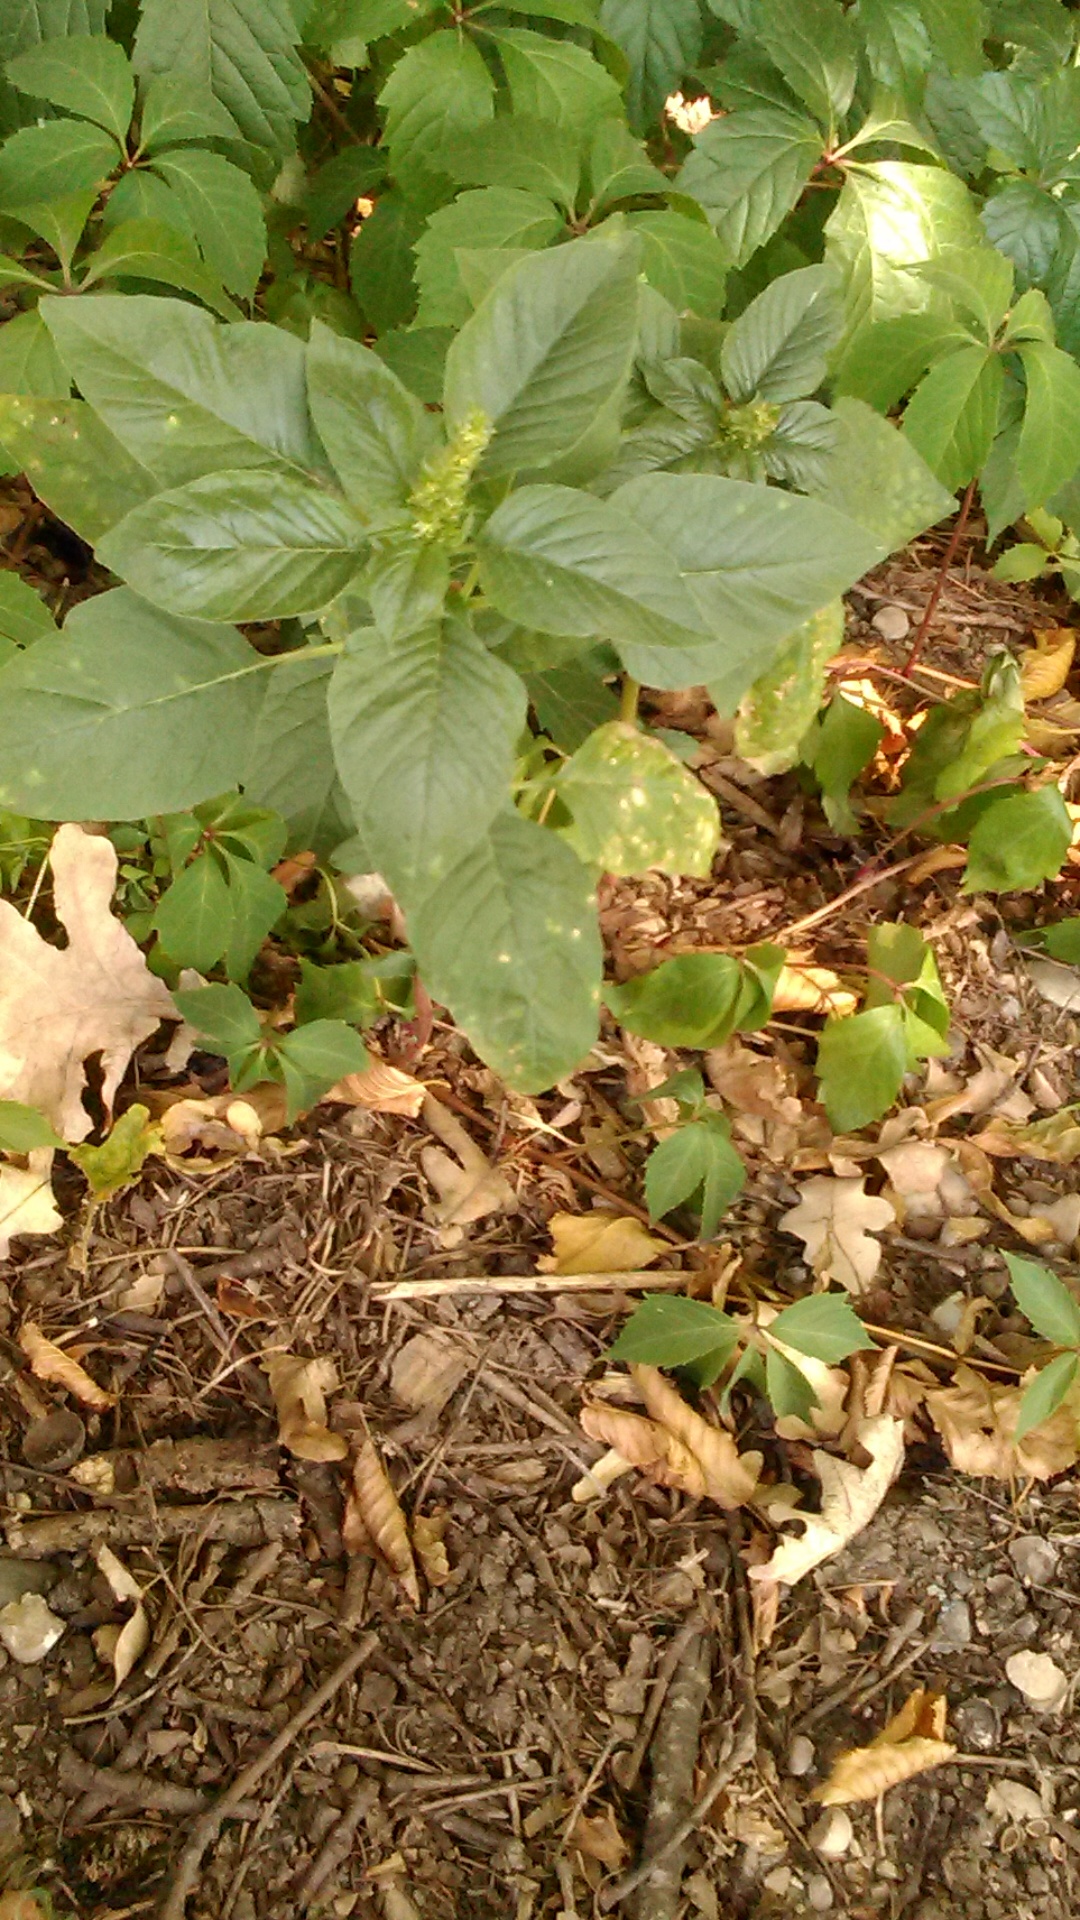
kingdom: Plantae
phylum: Tracheophyta
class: Magnoliopsida
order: Caryophyllales
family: Amaranthaceae
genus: Amaranthus
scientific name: Amaranthus retroflexus
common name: Redroot amaranth
